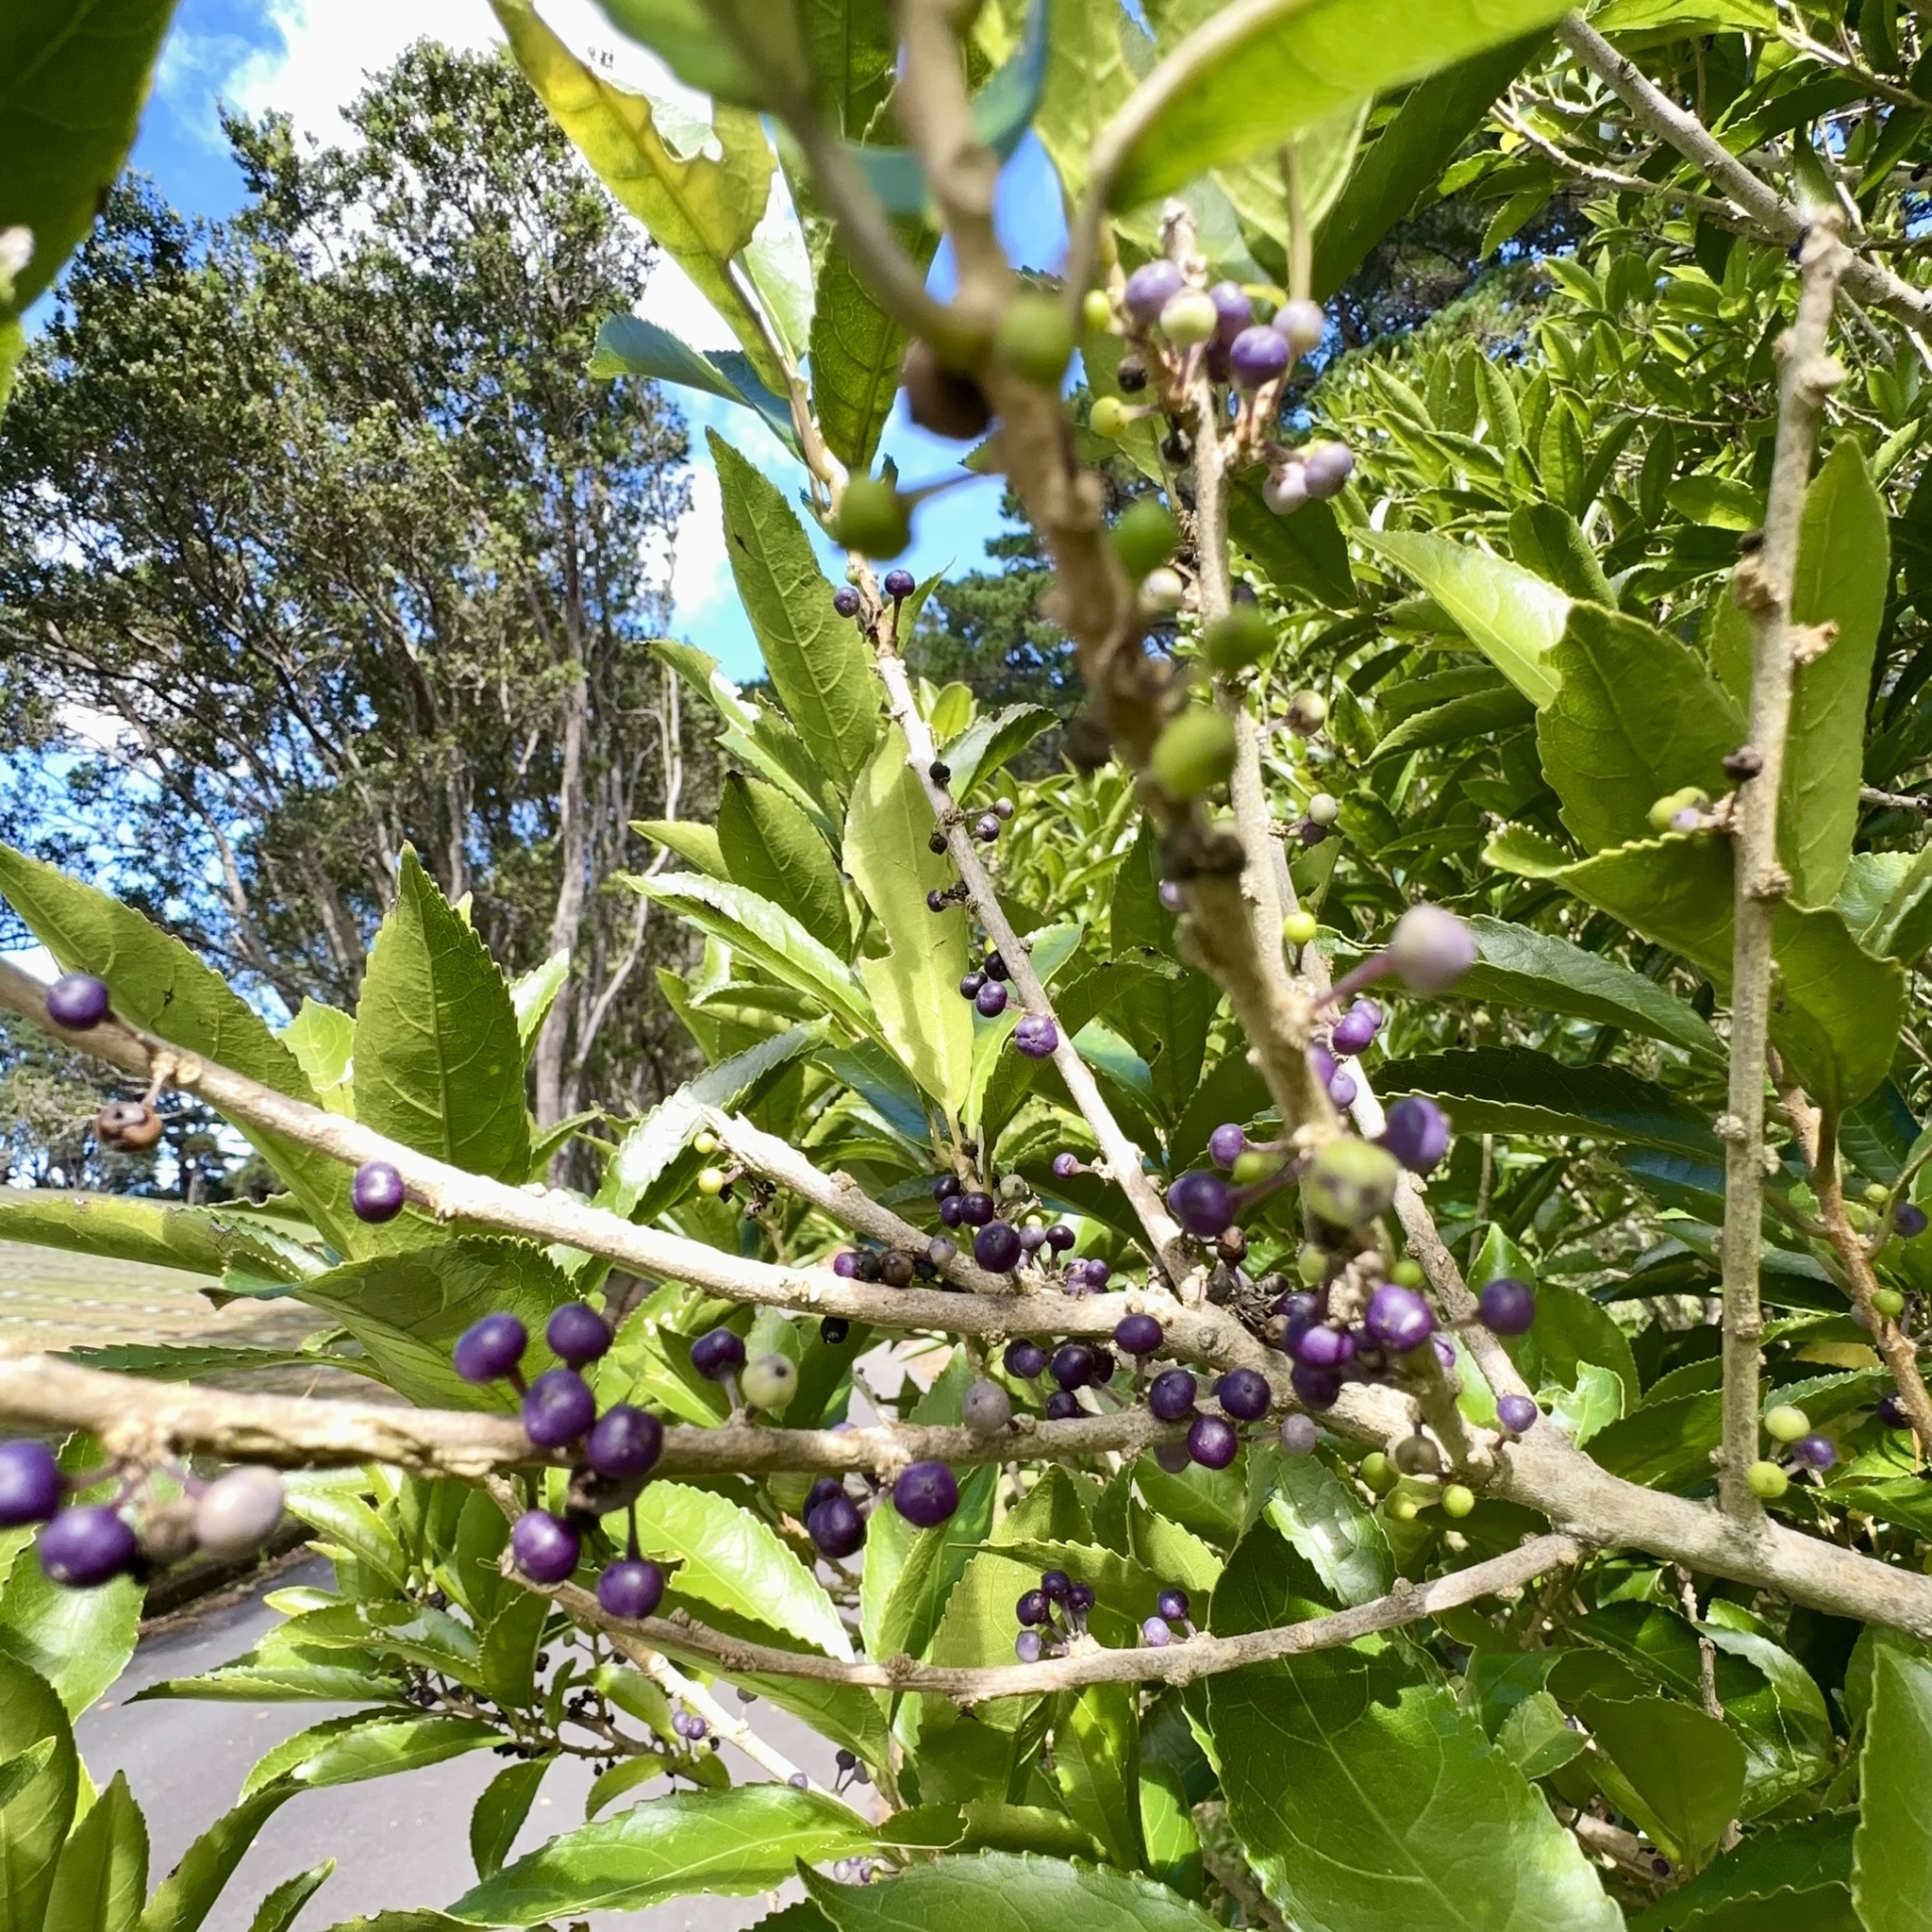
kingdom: Plantae
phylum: Tracheophyta
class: Magnoliopsida
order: Malpighiales
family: Violaceae
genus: Melicytus
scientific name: Melicytus ramiflorus
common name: Mahoe
